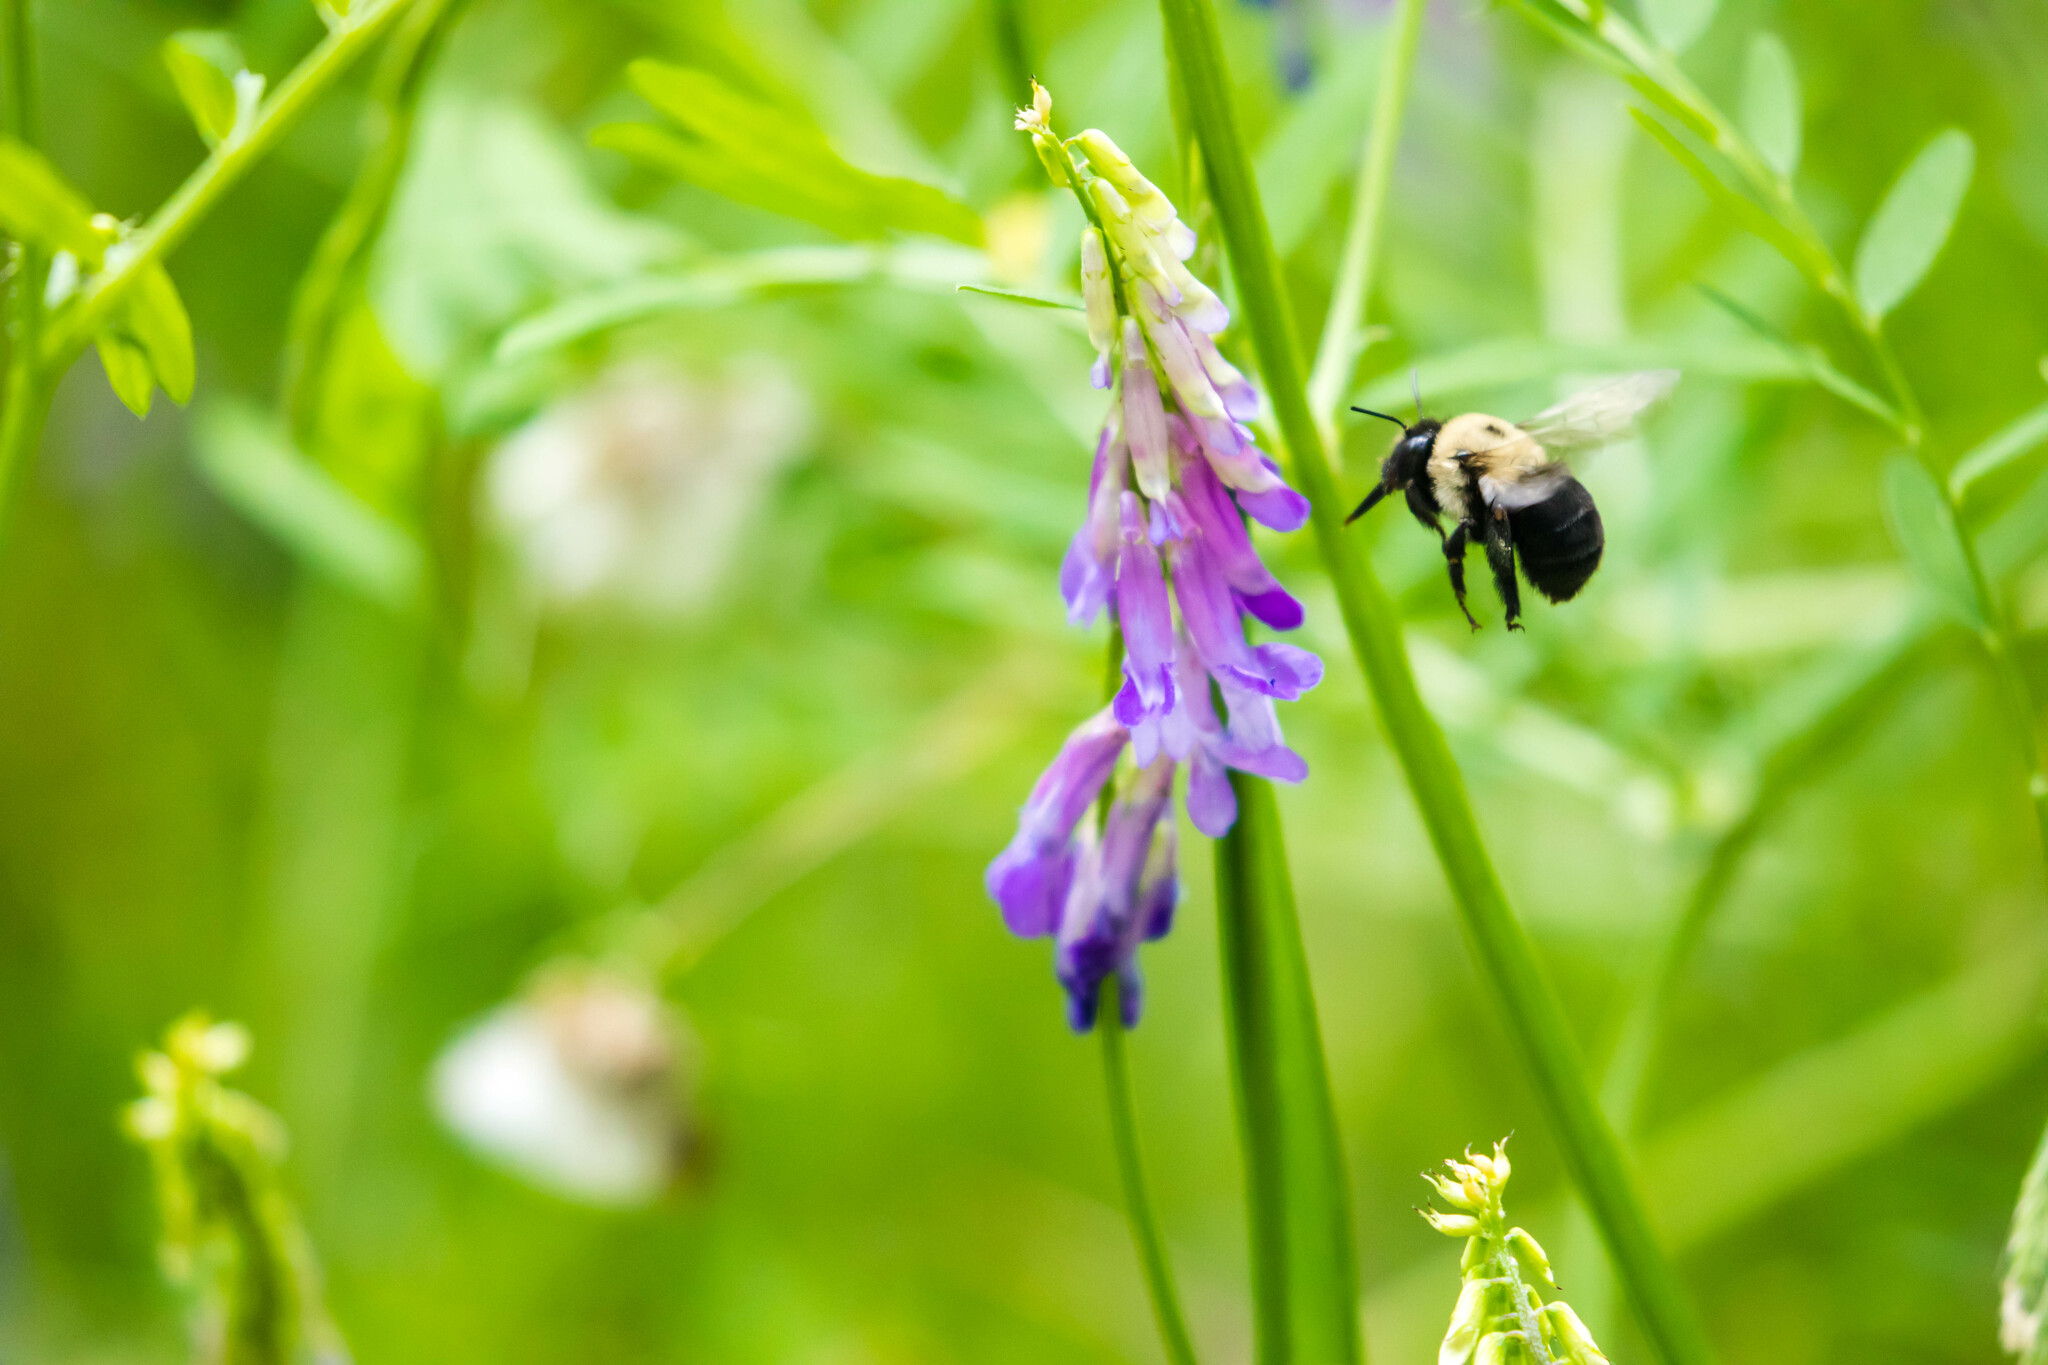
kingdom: Animalia
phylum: Arthropoda
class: Insecta
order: Hymenoptera
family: Apidae
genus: Anthophora
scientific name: Anthophora abrupta
